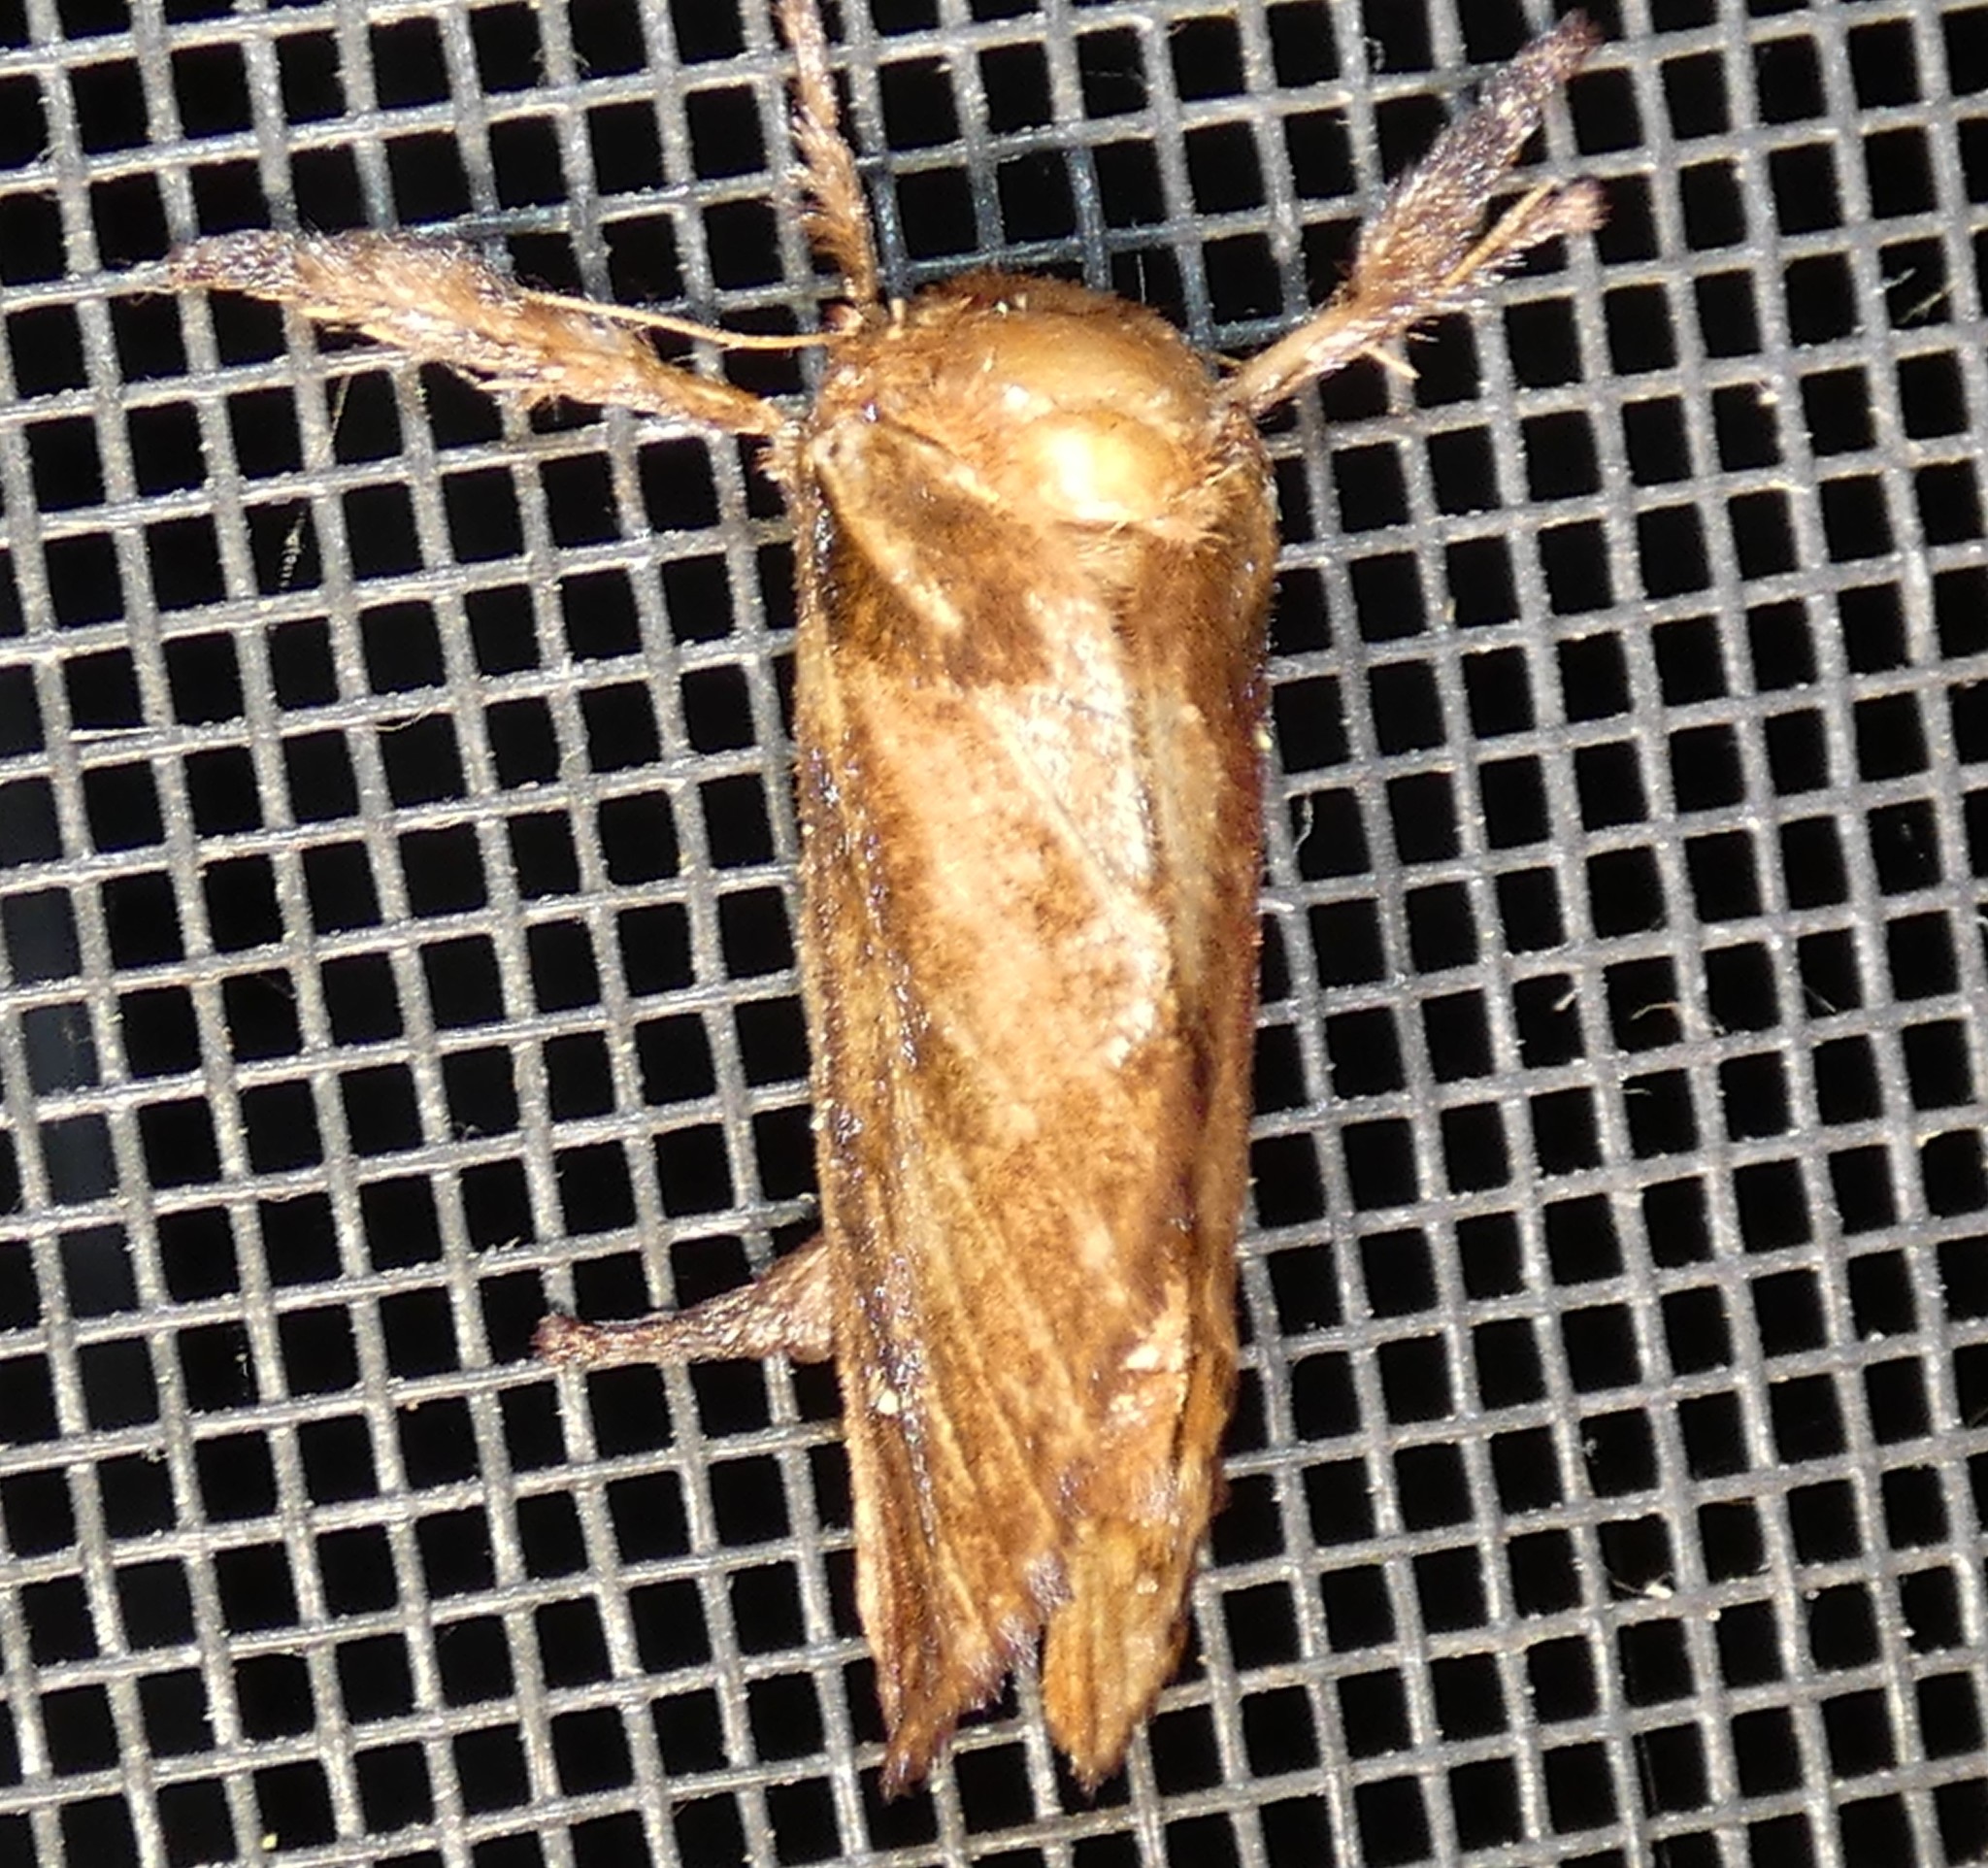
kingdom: Animalia
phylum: Arthropoda
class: Insecta
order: Lepidoptera
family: Limacodidae
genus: Acharia
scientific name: Acharia stimulea
